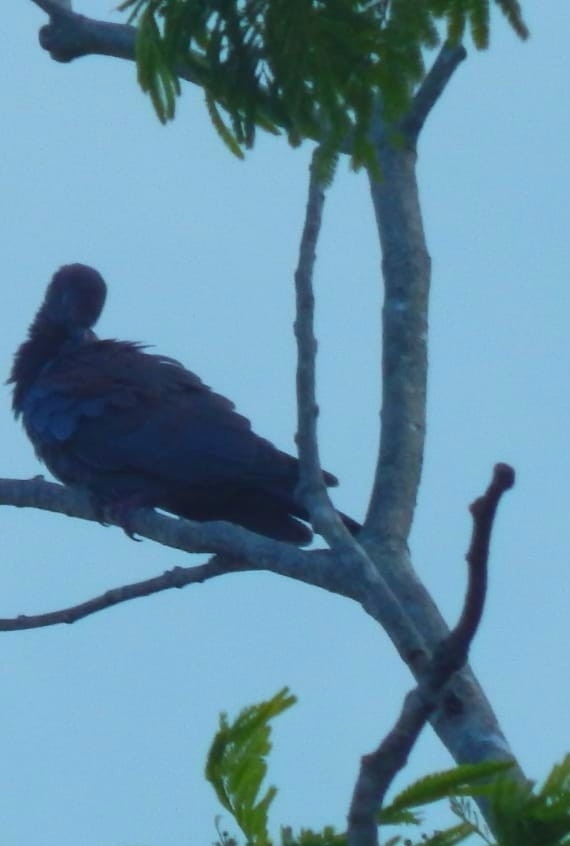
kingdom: Animalia
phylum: Chordata
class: Aves
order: Columbiformes
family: Columbidae
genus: Patagioenas
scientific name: Patagioenas flavirostris
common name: Red-billed pigeon
